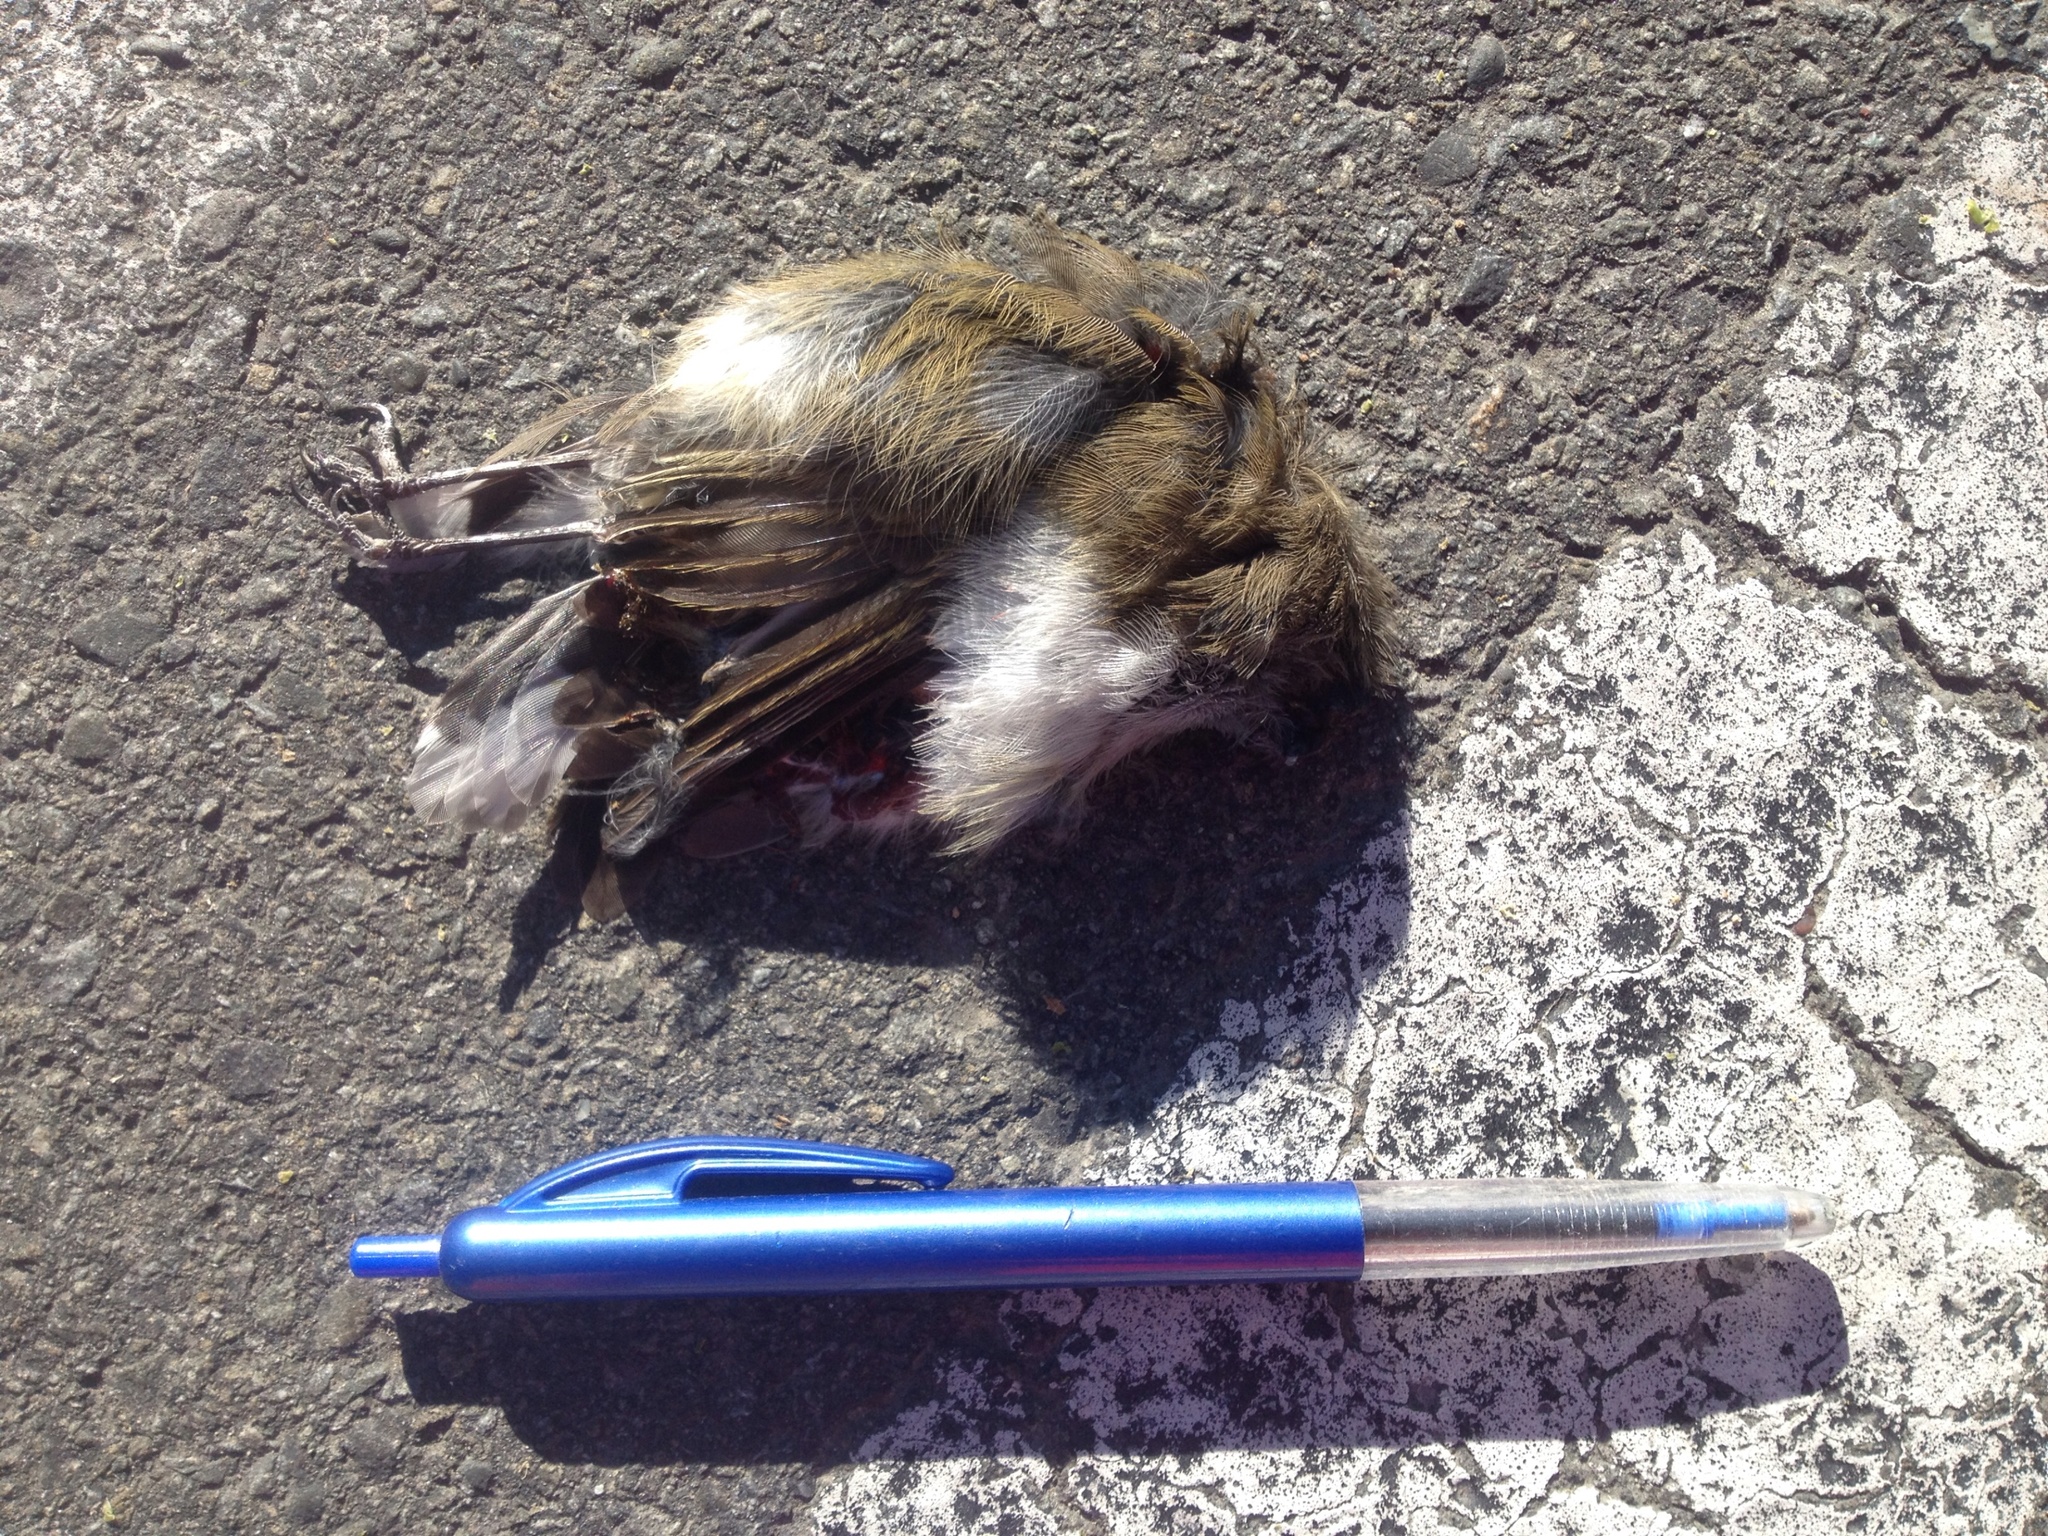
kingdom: Animalia
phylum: Chordata
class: Aves
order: Passeriformes
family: Acanthizidae
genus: Gerygone
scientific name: Gerygone igata
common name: Grey gerygone
